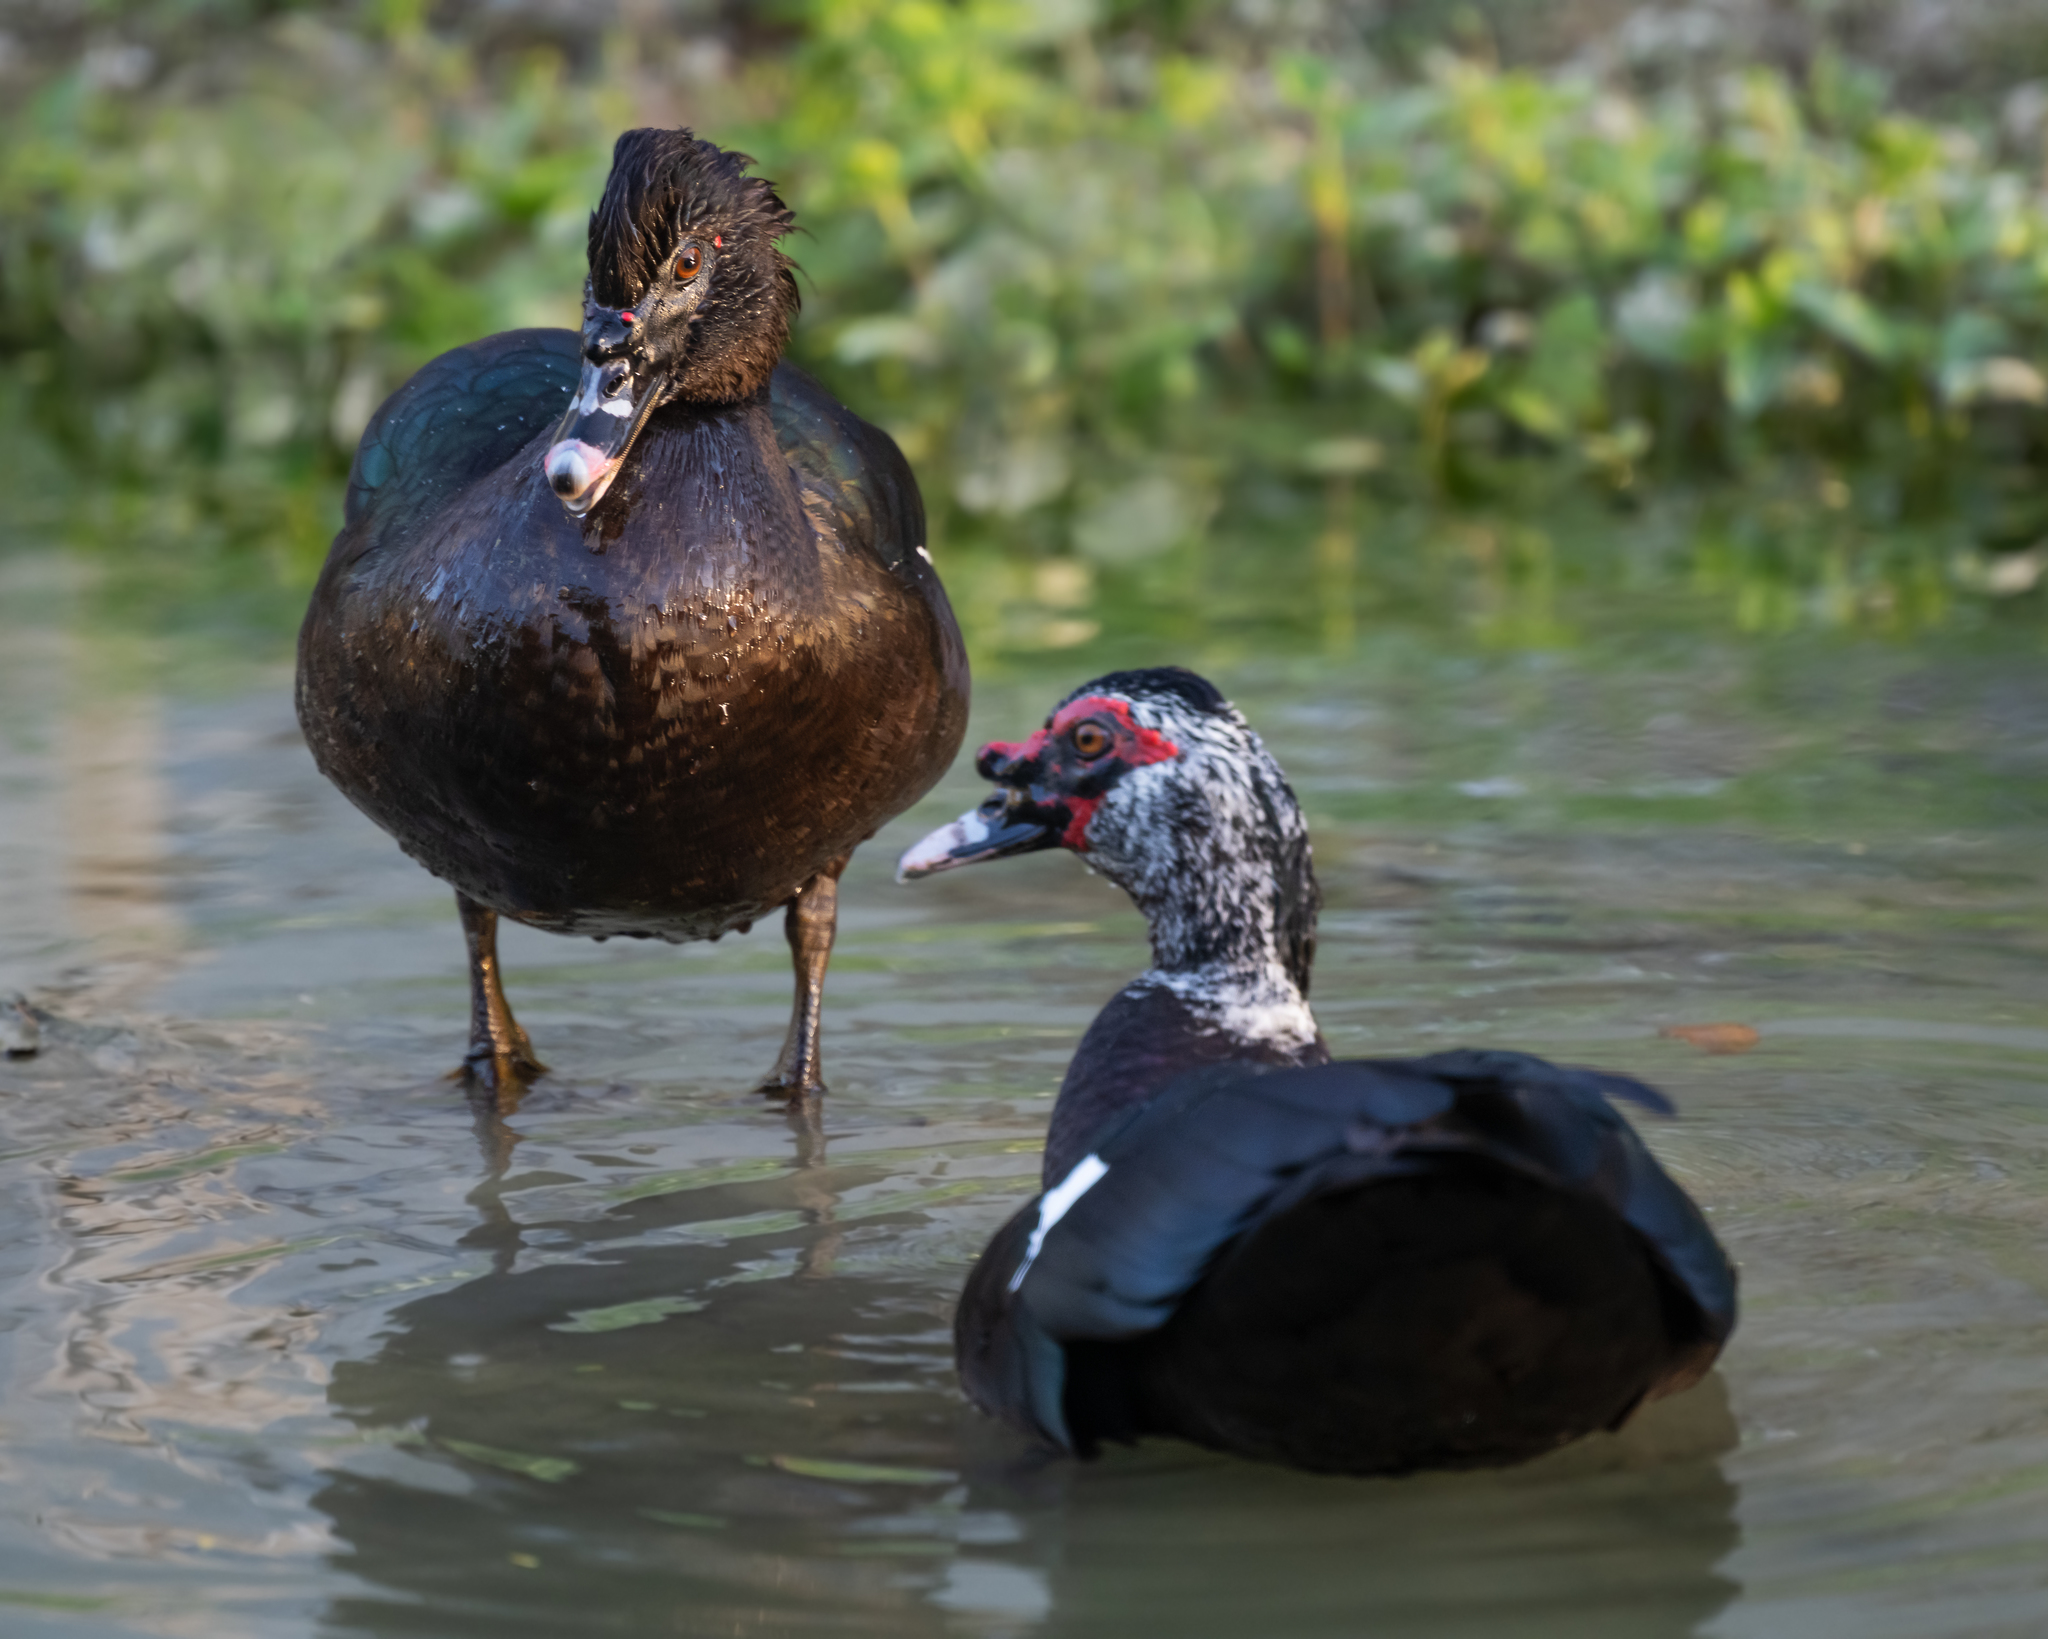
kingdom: Animalia
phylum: Chordata
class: Aves
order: Anseriformes
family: Anatidae
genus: Cairina
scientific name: Cairina moschata
